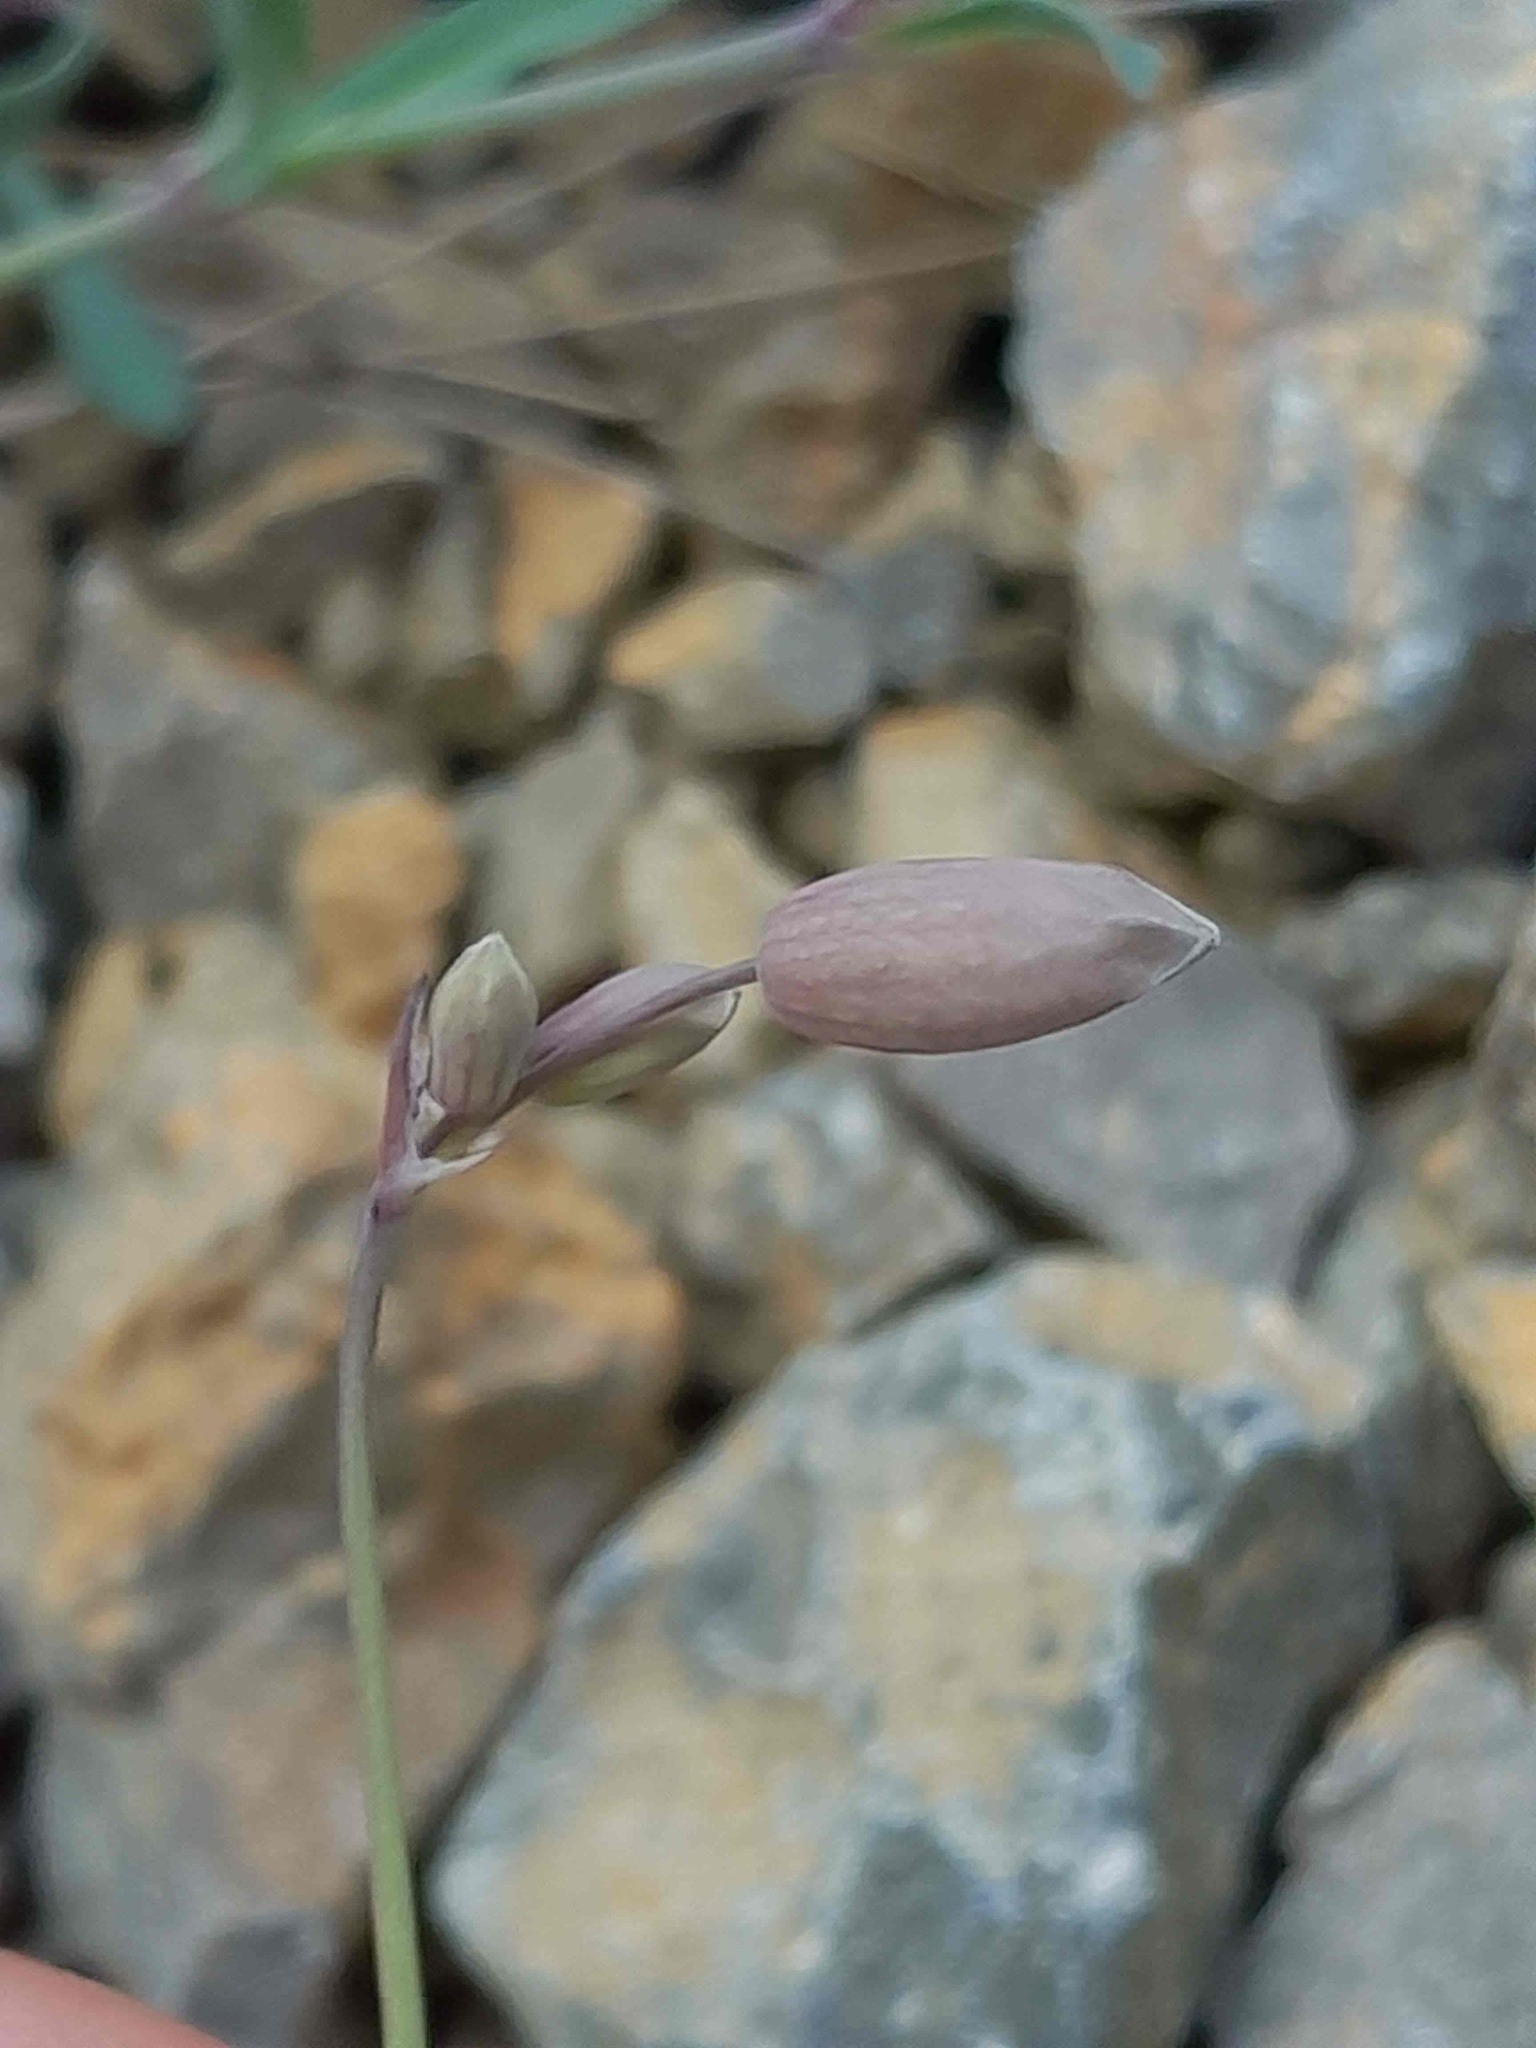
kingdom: Plantae
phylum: Tracheophyta
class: Magnoliopsida
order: Caryophyllales
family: Caryophyllaceae
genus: Silene
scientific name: Silene vulgaris
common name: Bladder campion
